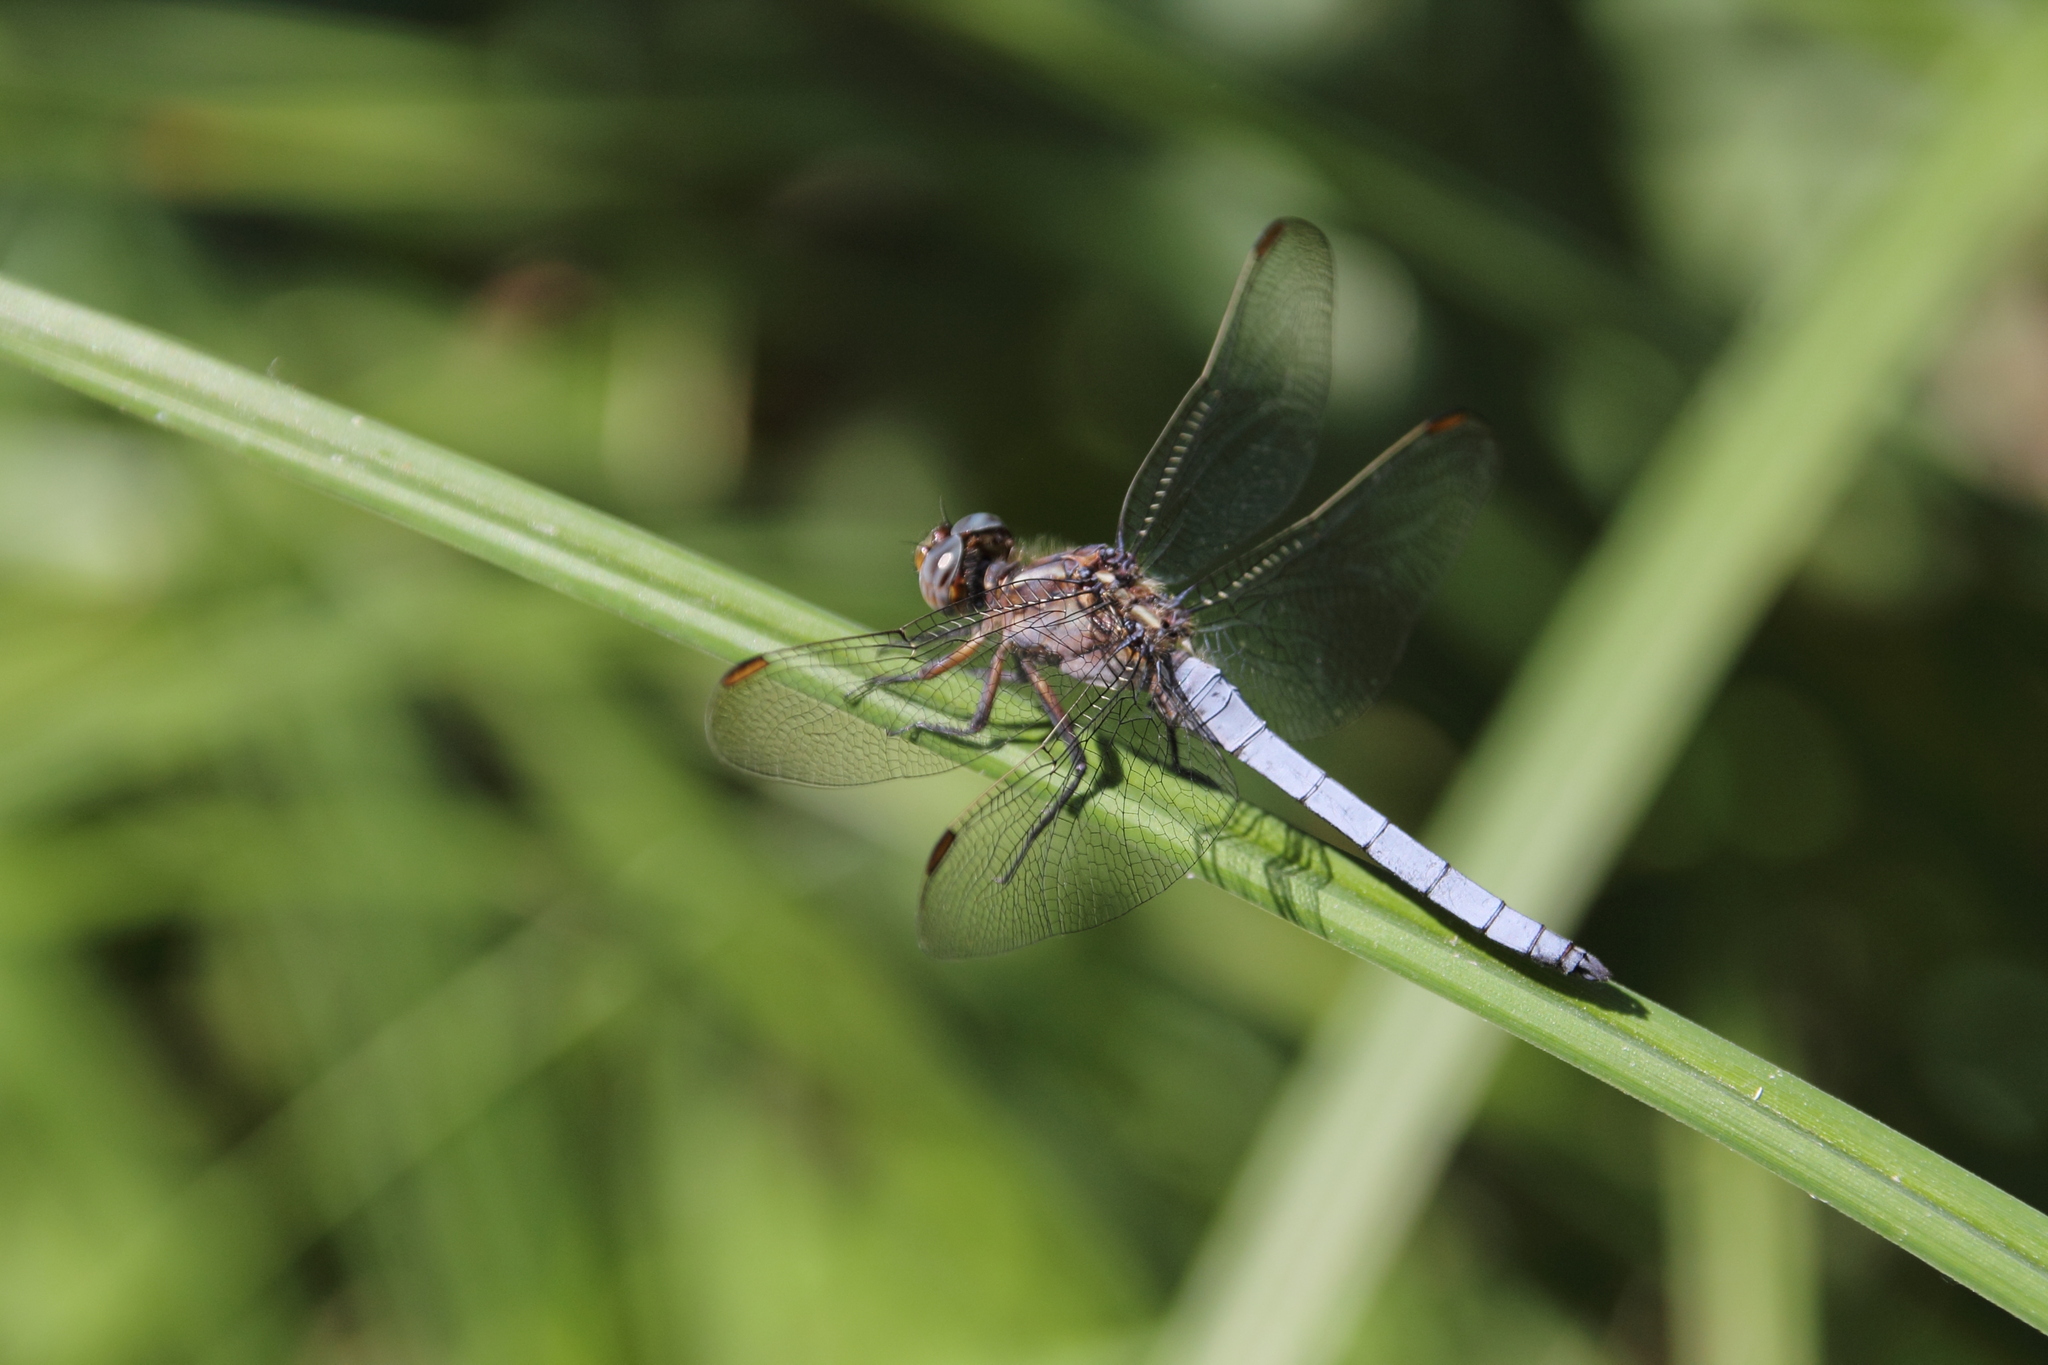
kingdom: Animalia
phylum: Arthropoda
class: Insecta
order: Odonata
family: Libellulidae
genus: Orthetrum
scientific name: Orthetrum coerulescens
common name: Keeled skimmer
